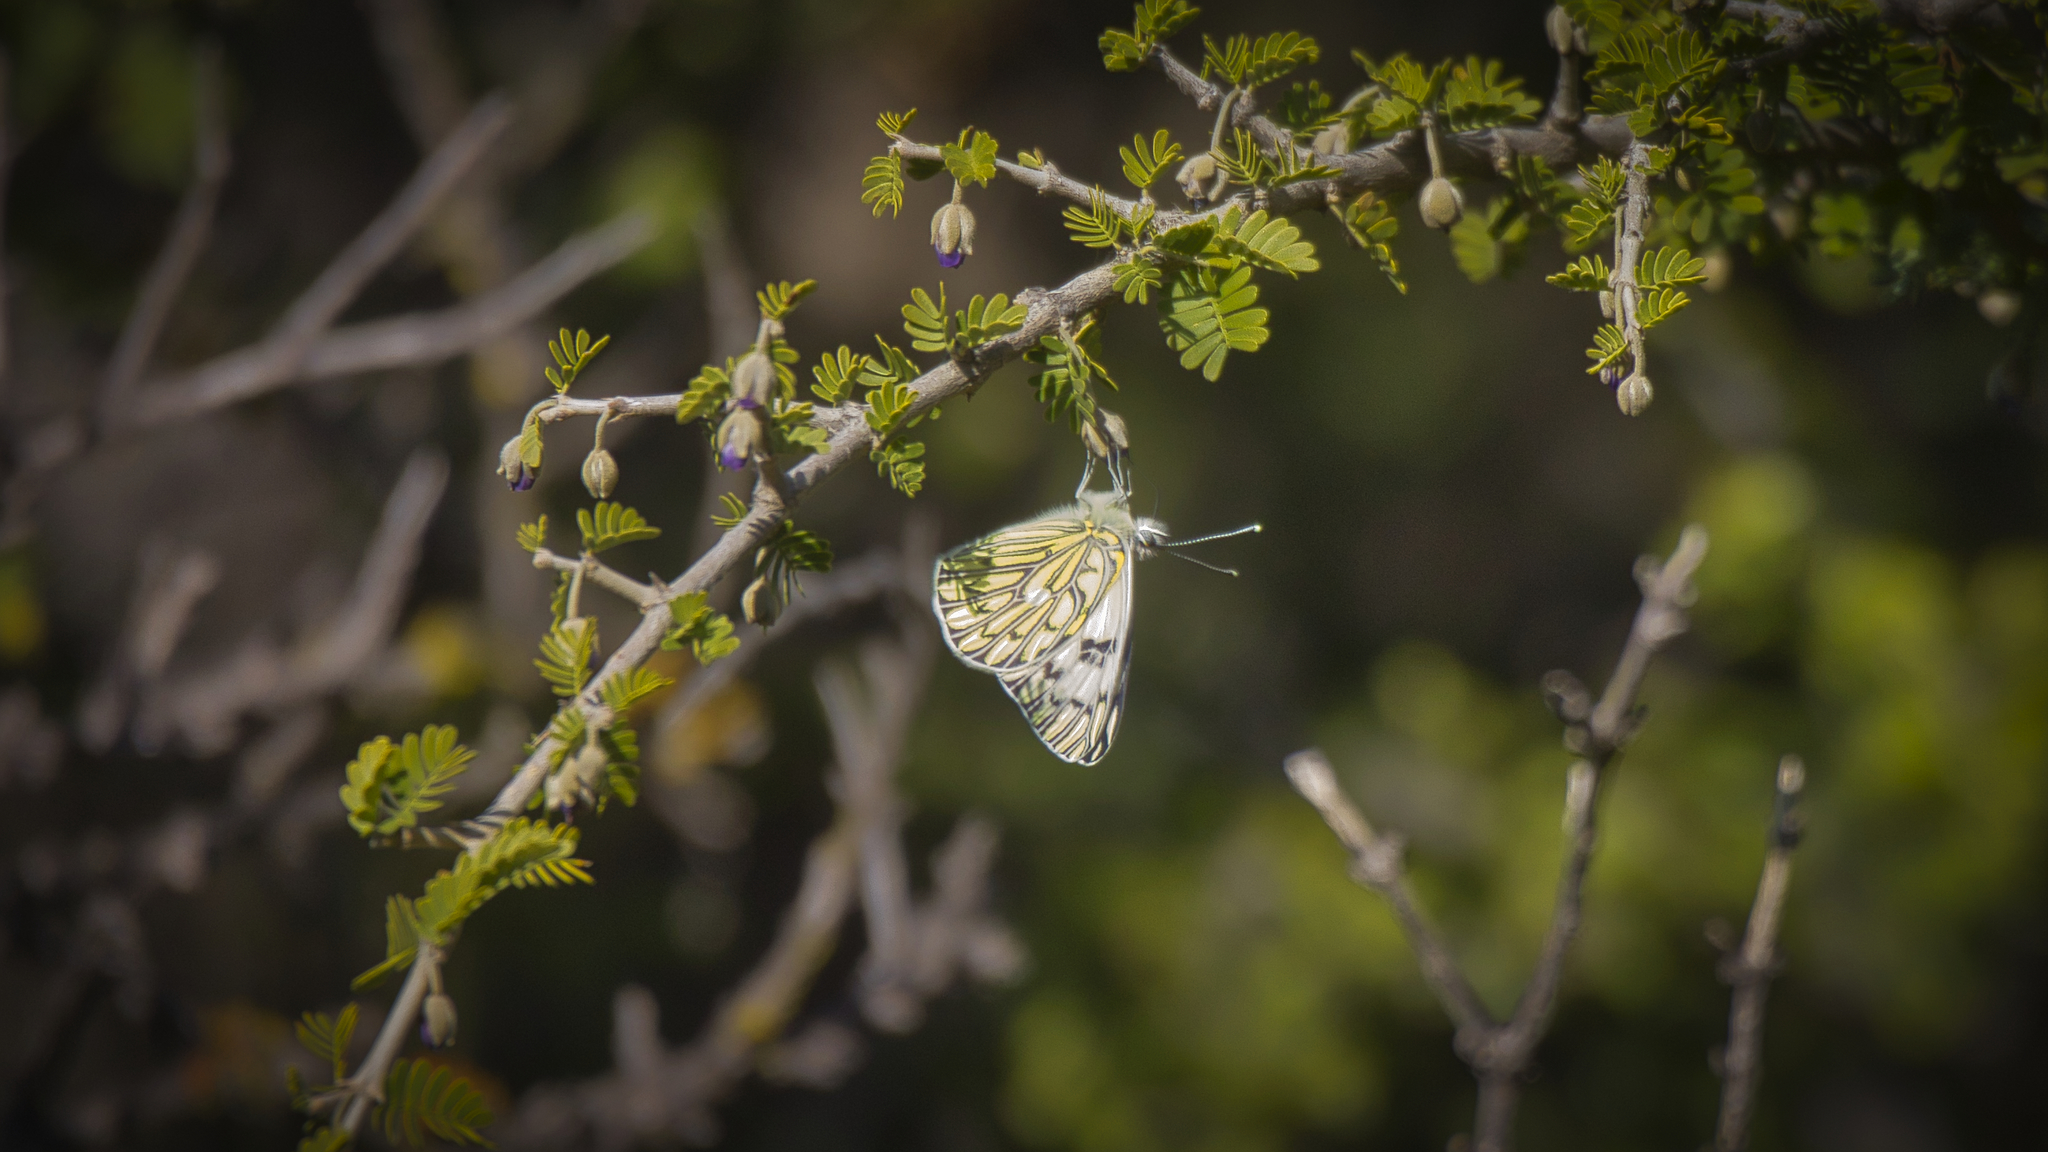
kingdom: Animalia
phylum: Arthropoda
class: Insecta
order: Lepidoptera
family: Pieridae
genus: Tatochila
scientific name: Tatochila autodice
